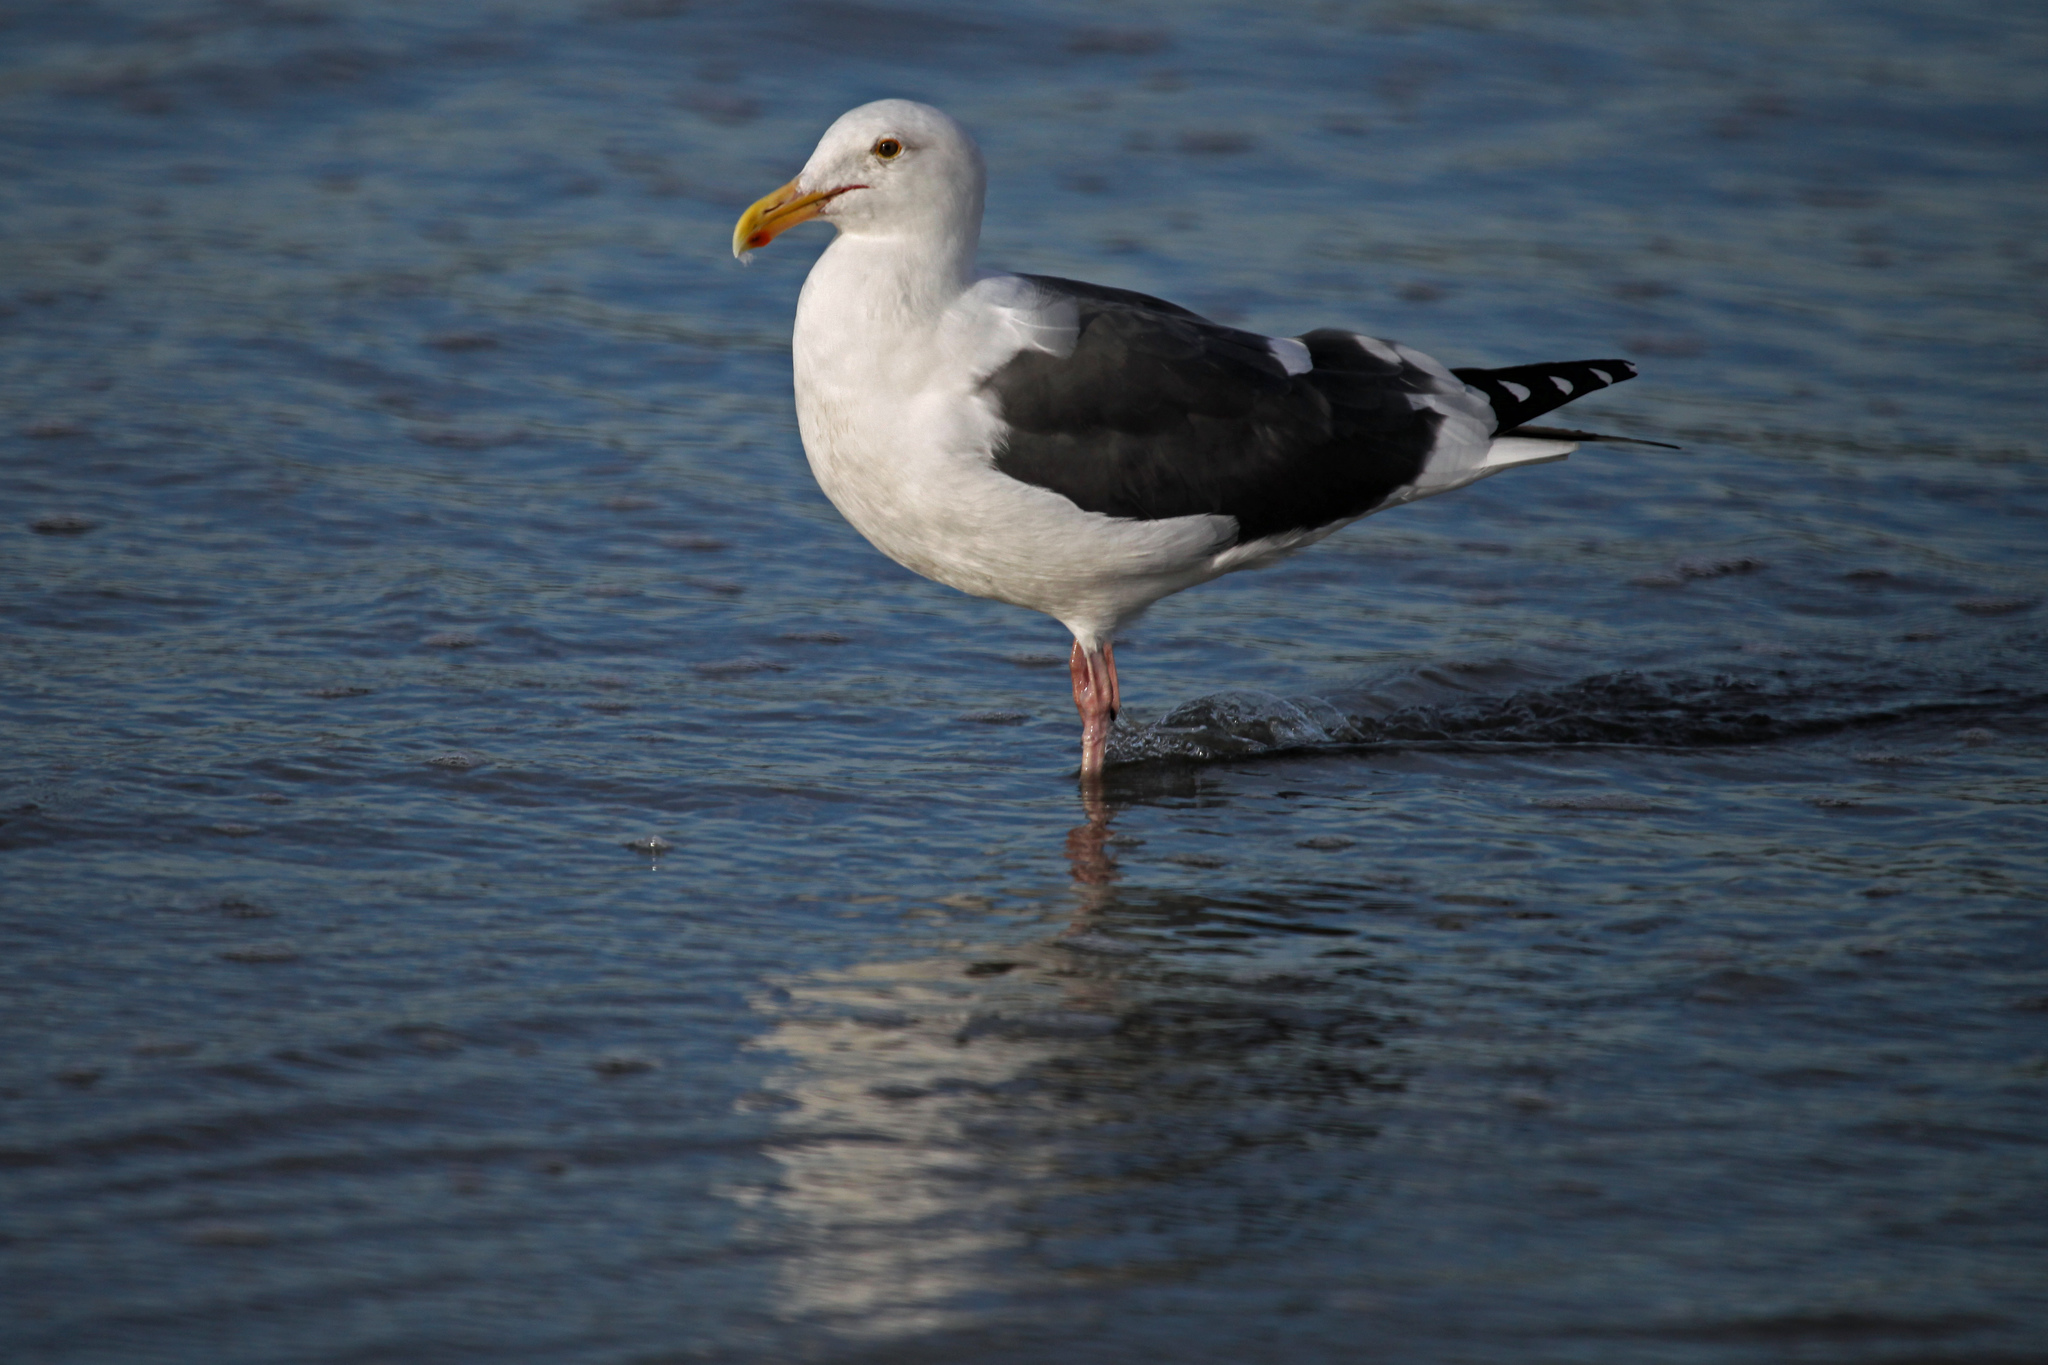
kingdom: Animalia
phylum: Chordata
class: Aves
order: Charadriiformes
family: Laridae
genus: Larus
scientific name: Larus occidentalis
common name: Western gull
